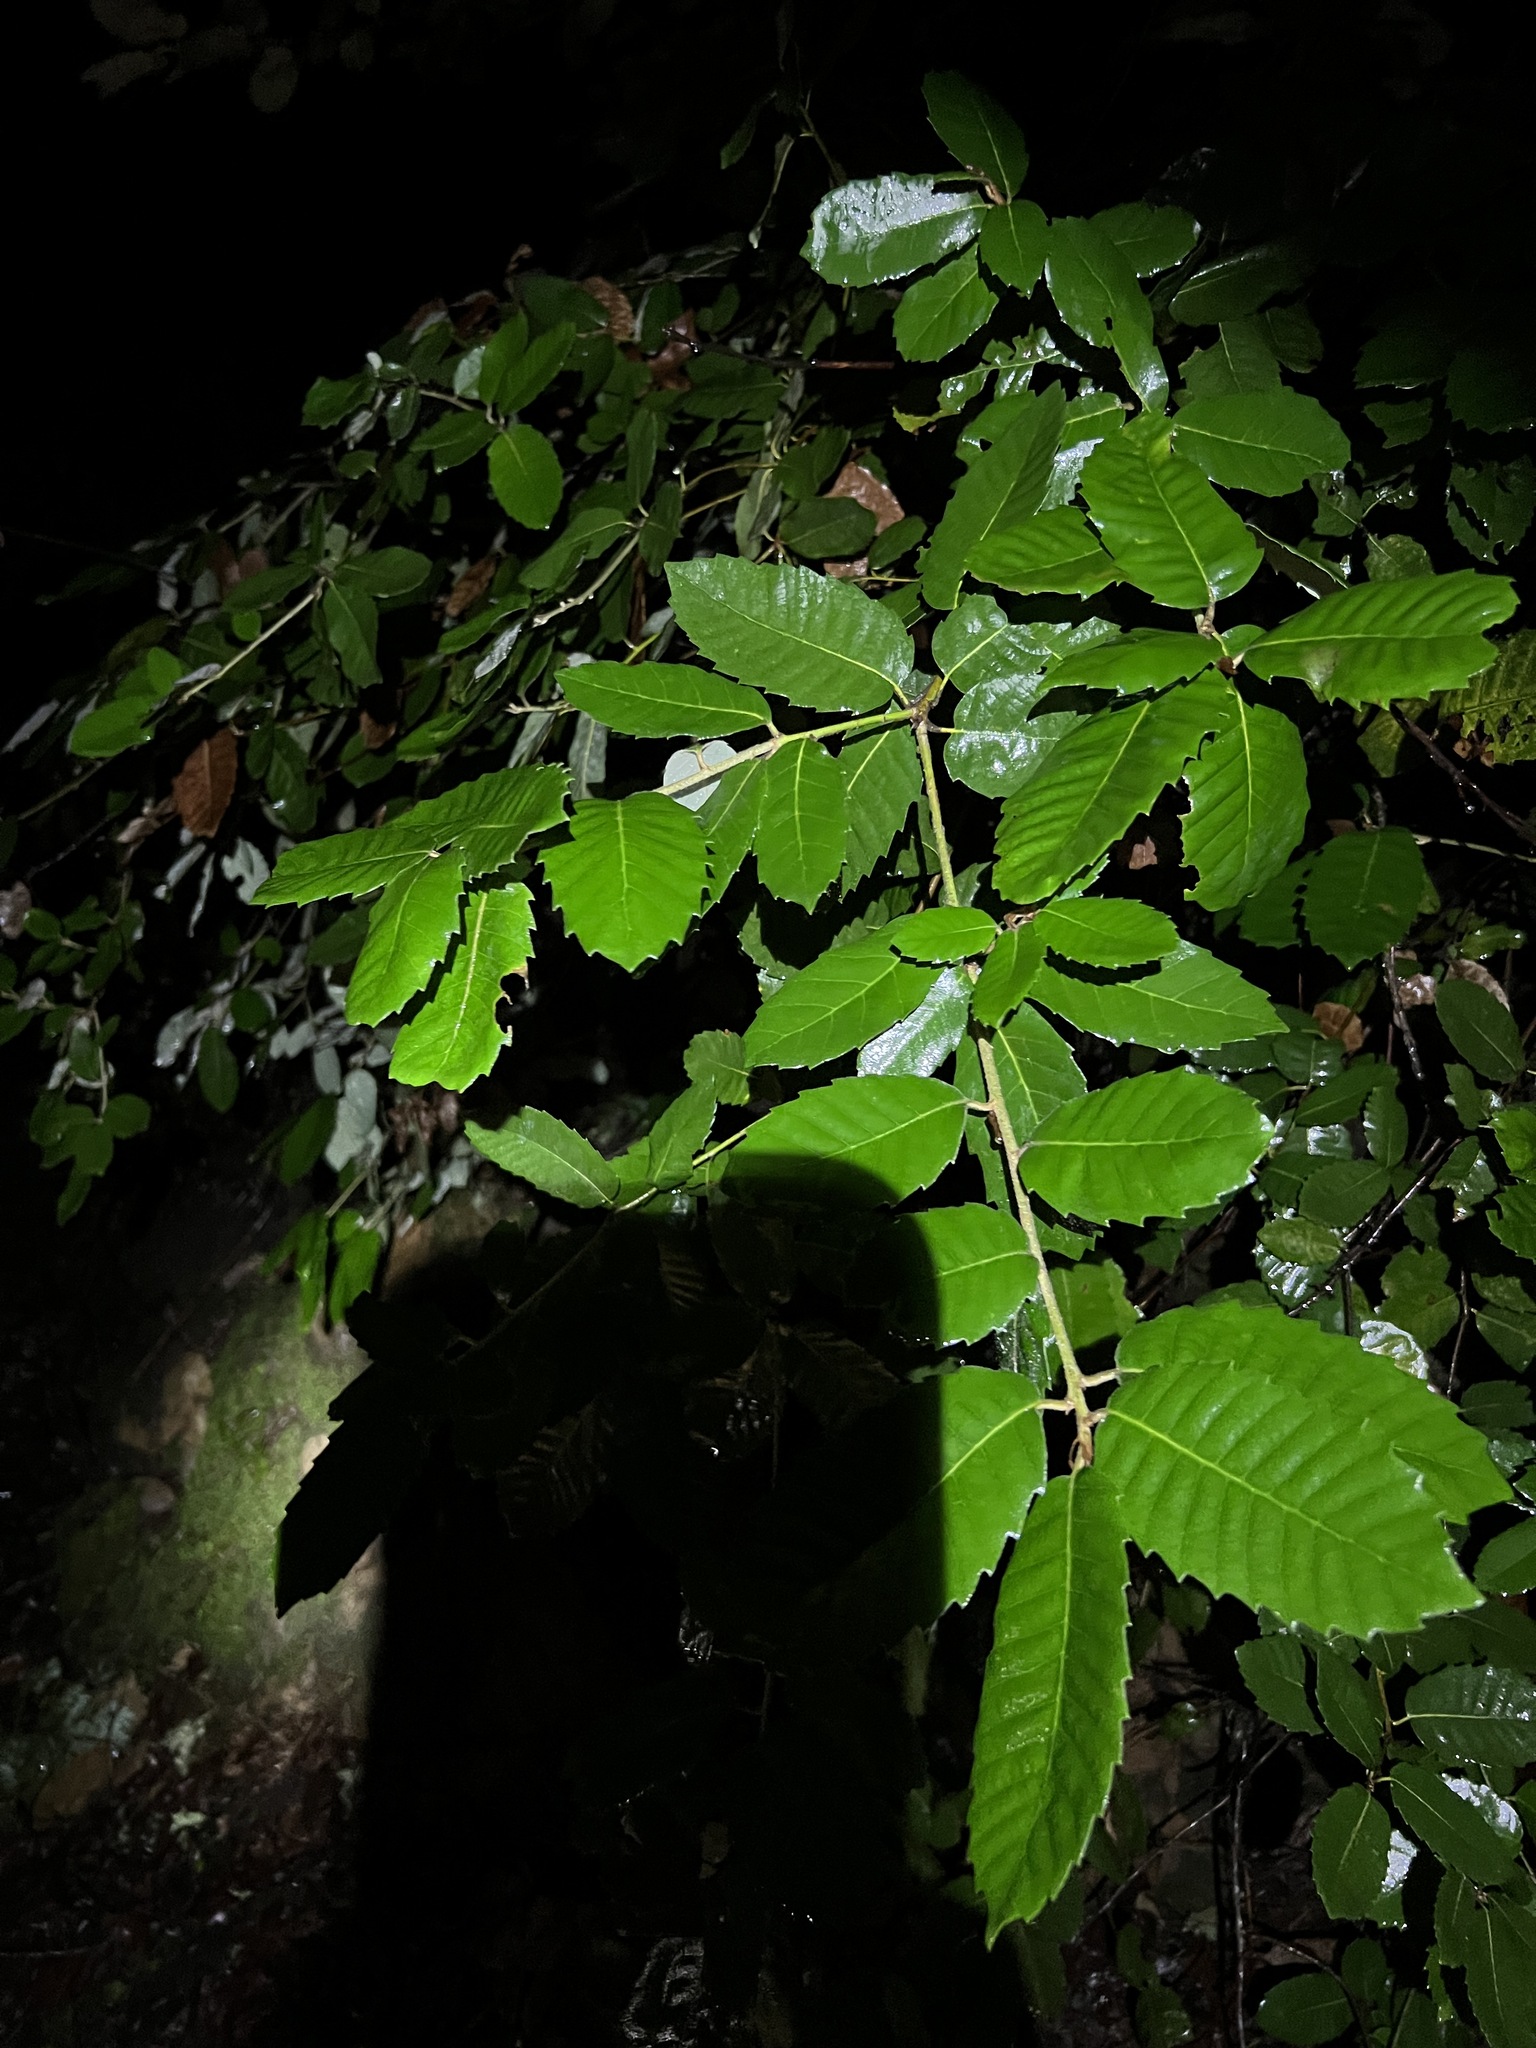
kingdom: Plantae
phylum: Tracheophyta
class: Magnoliopsida
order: Fagales
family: Fagaceae
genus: Notholithocarpus
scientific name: Notholithocarpus densiflorus
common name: Tan bark oak
